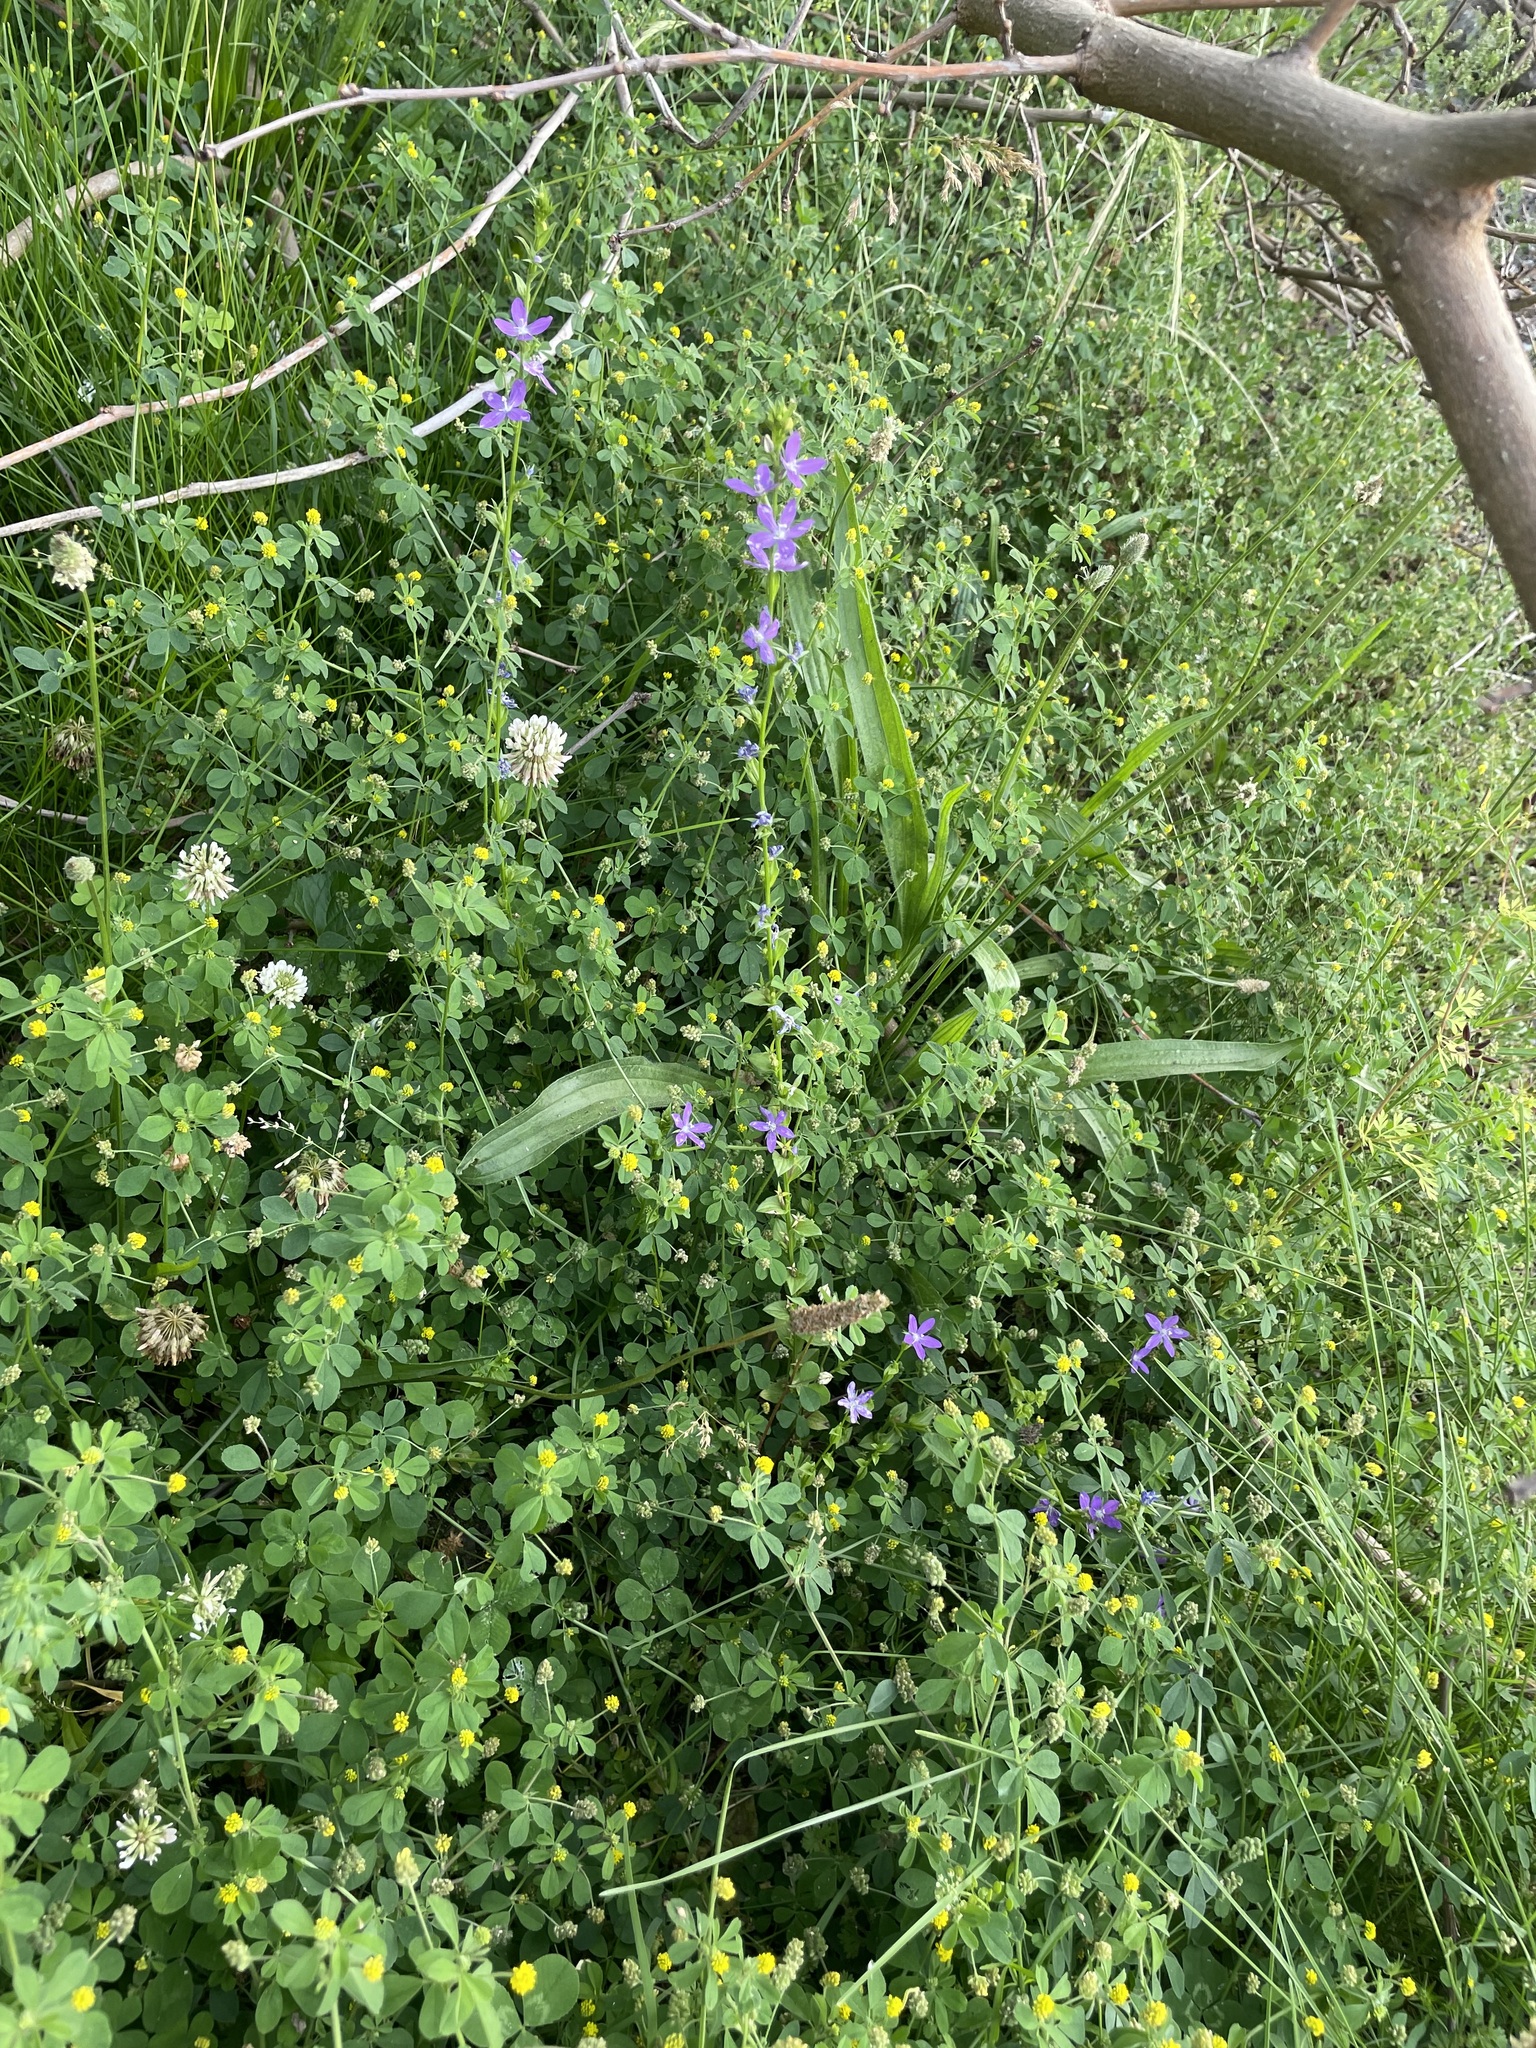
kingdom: Plantae
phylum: Tracheophyta
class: Magnoliopsida
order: Asterales
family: Campanulaceae
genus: Triodanis
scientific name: Triodanis perfoliata
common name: Clasping venus' looking-glass
